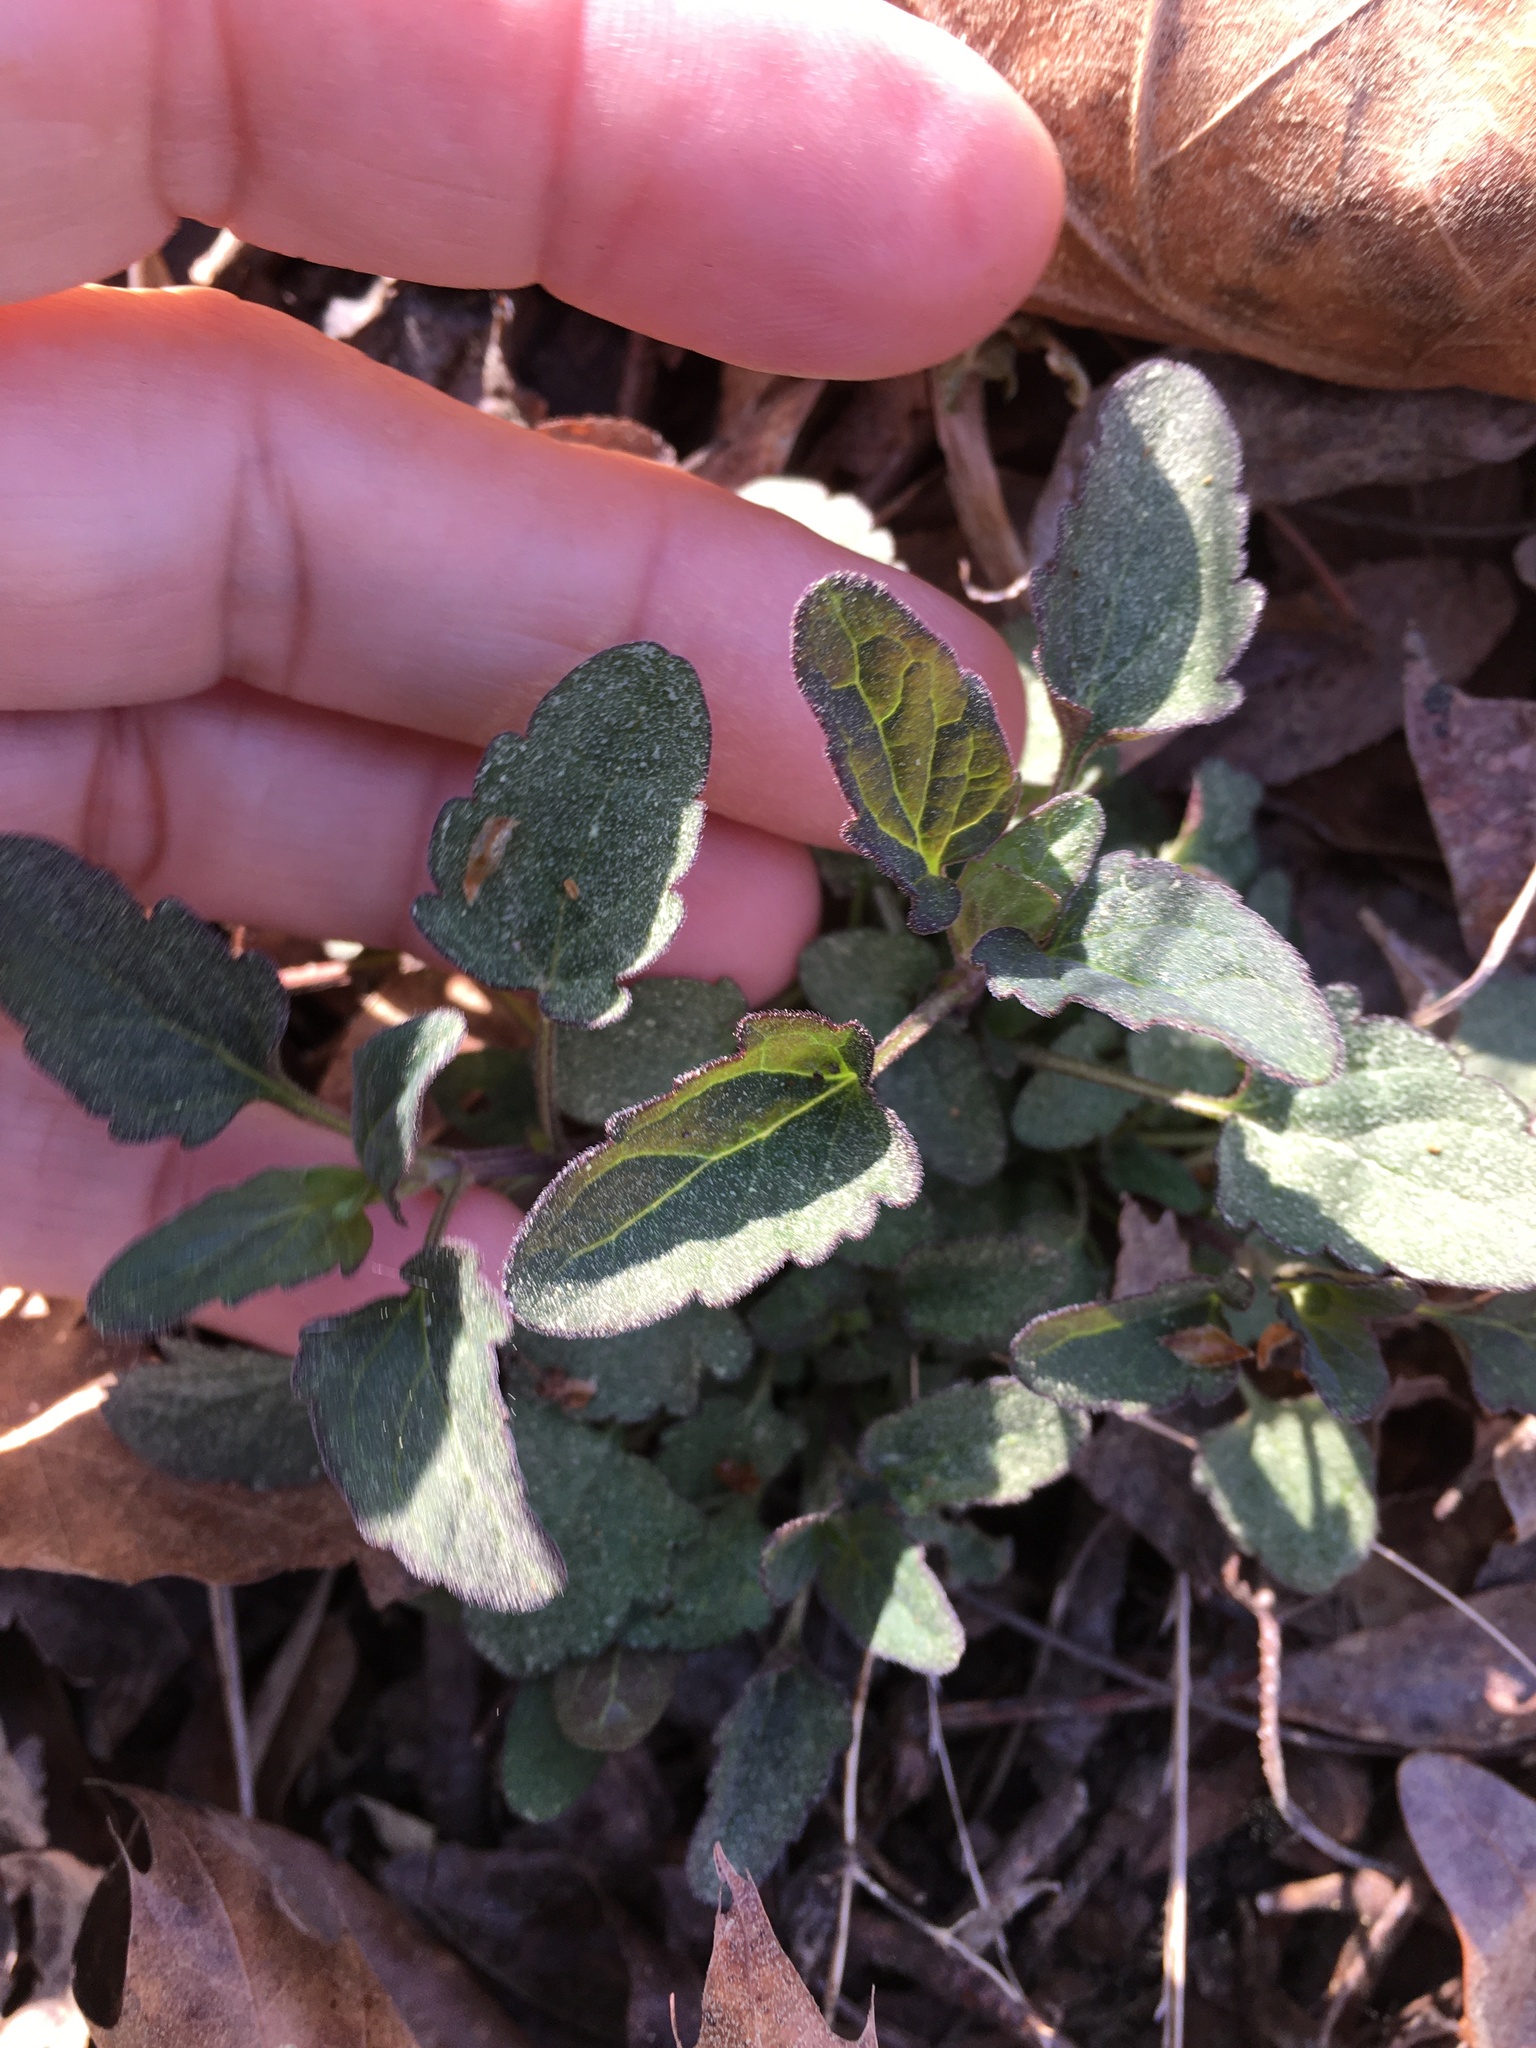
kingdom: Plantae
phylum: Tracheophyta
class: Magnoliopsida
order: Lamiales
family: Lamiaceae
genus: Scutellaria
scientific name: Scutellaria integrifolia
